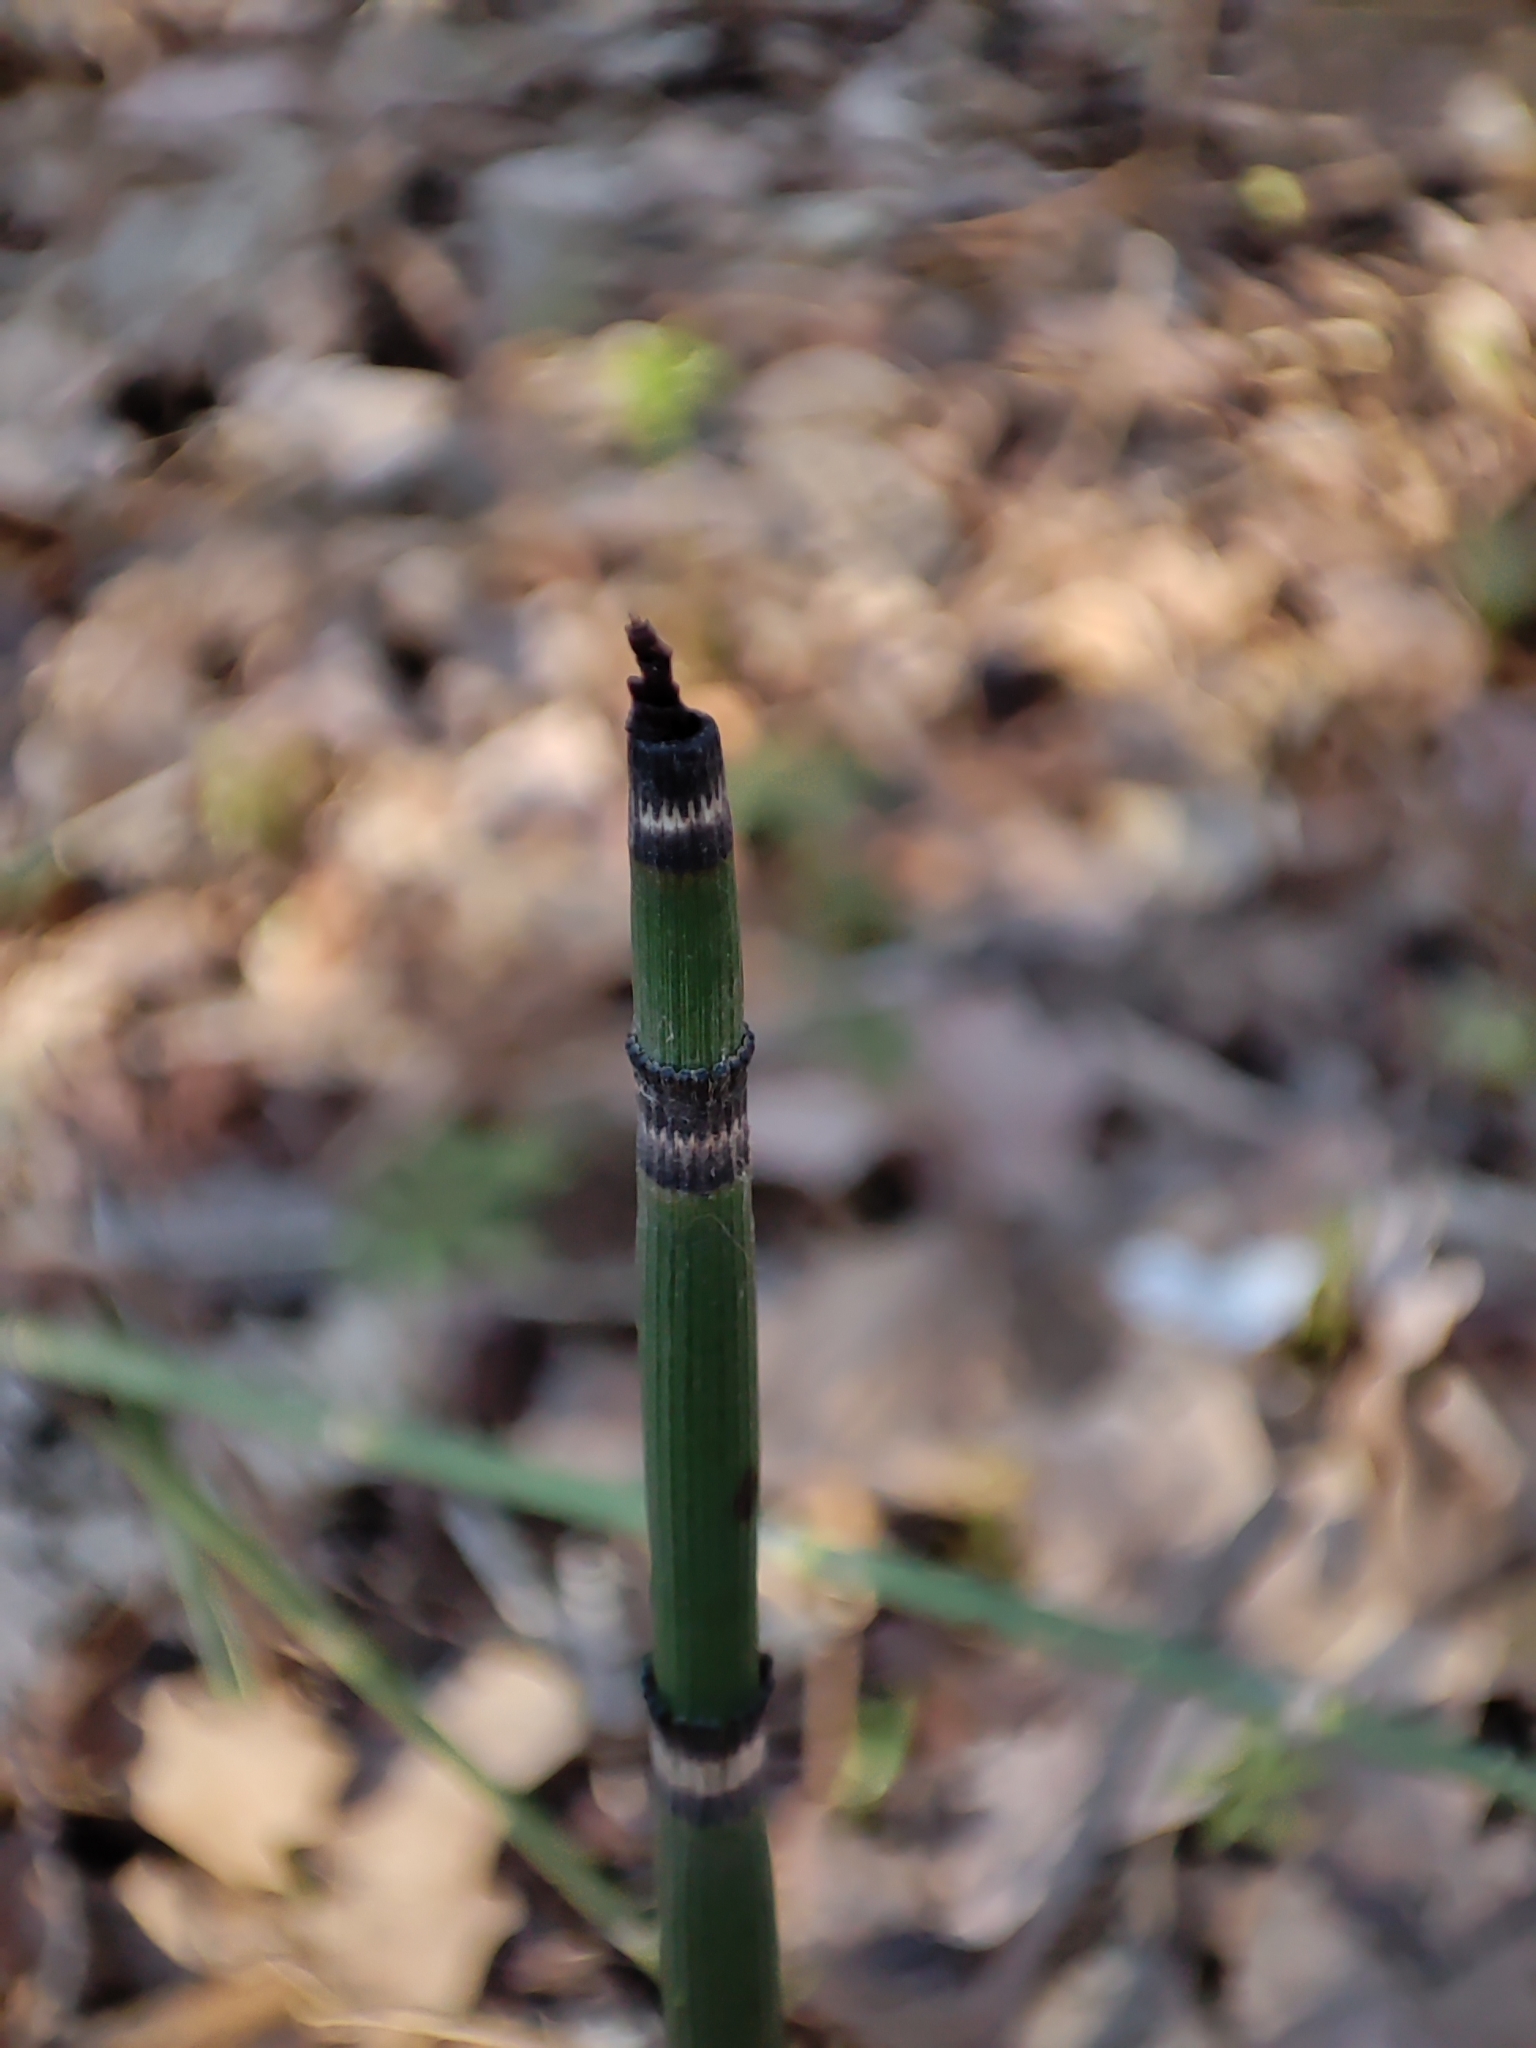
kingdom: Plantae
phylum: Tracheophyta
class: Polypodiopsida
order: Equisetales
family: Equisetaceae
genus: Equisetum
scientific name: Equisetum hyemale
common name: Rough horsetail
